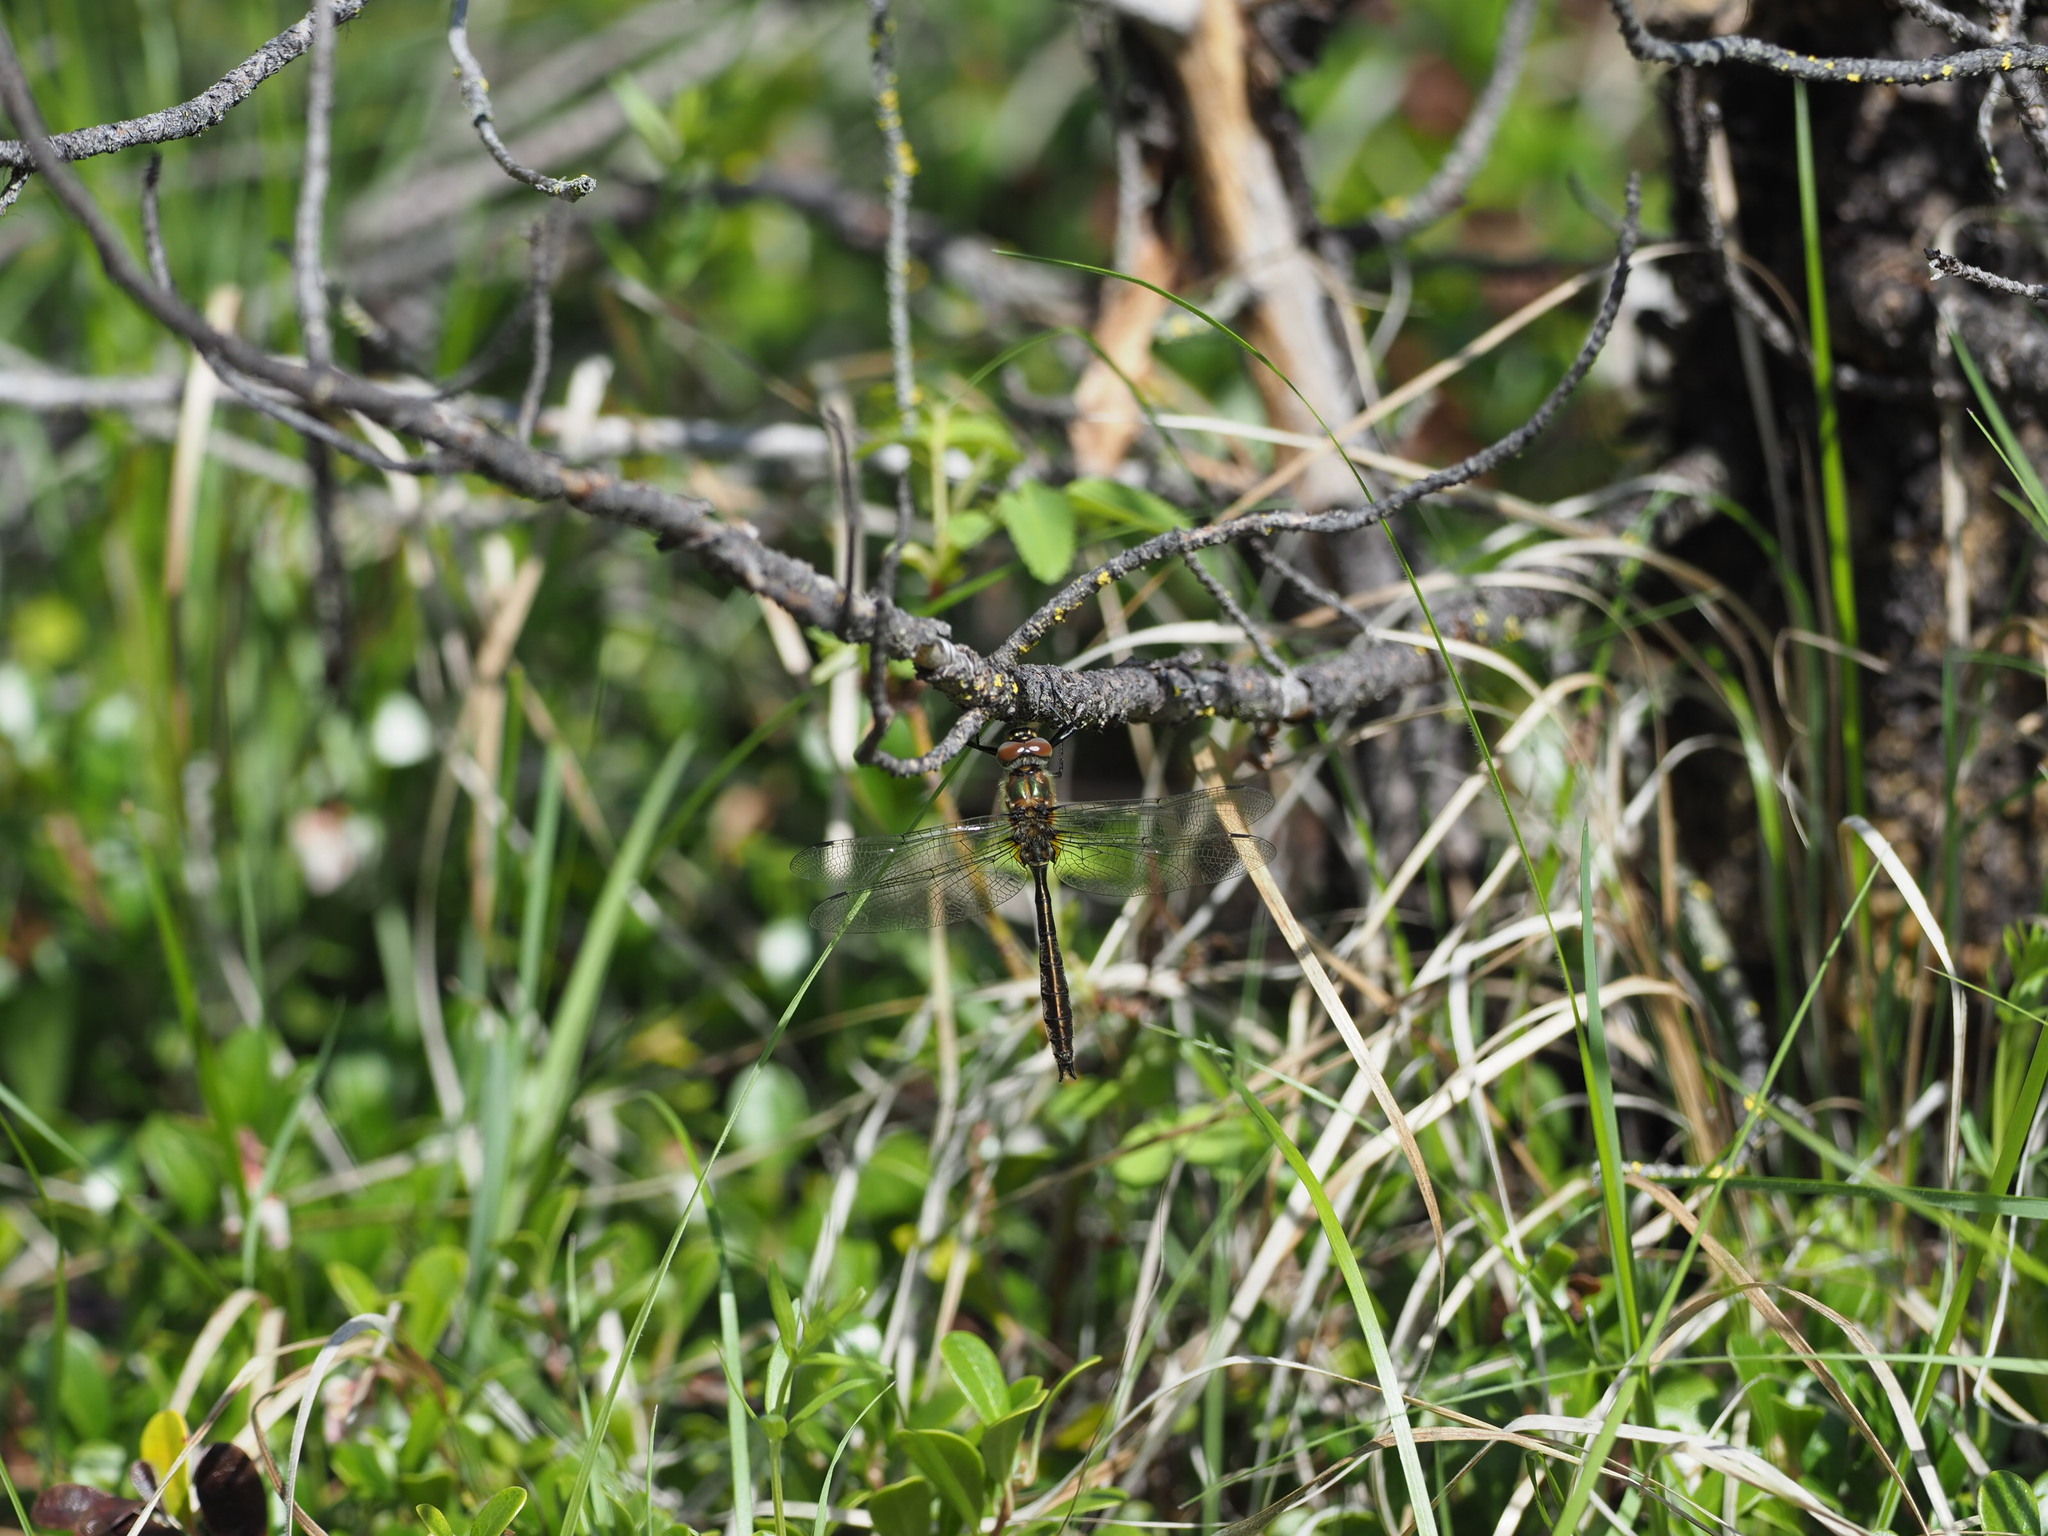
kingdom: Animalia
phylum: Arthropoda
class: Insecta
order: Odonata
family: Corduliidae
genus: Cordulia
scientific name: Cordulia shurtleffii
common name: American emerald
